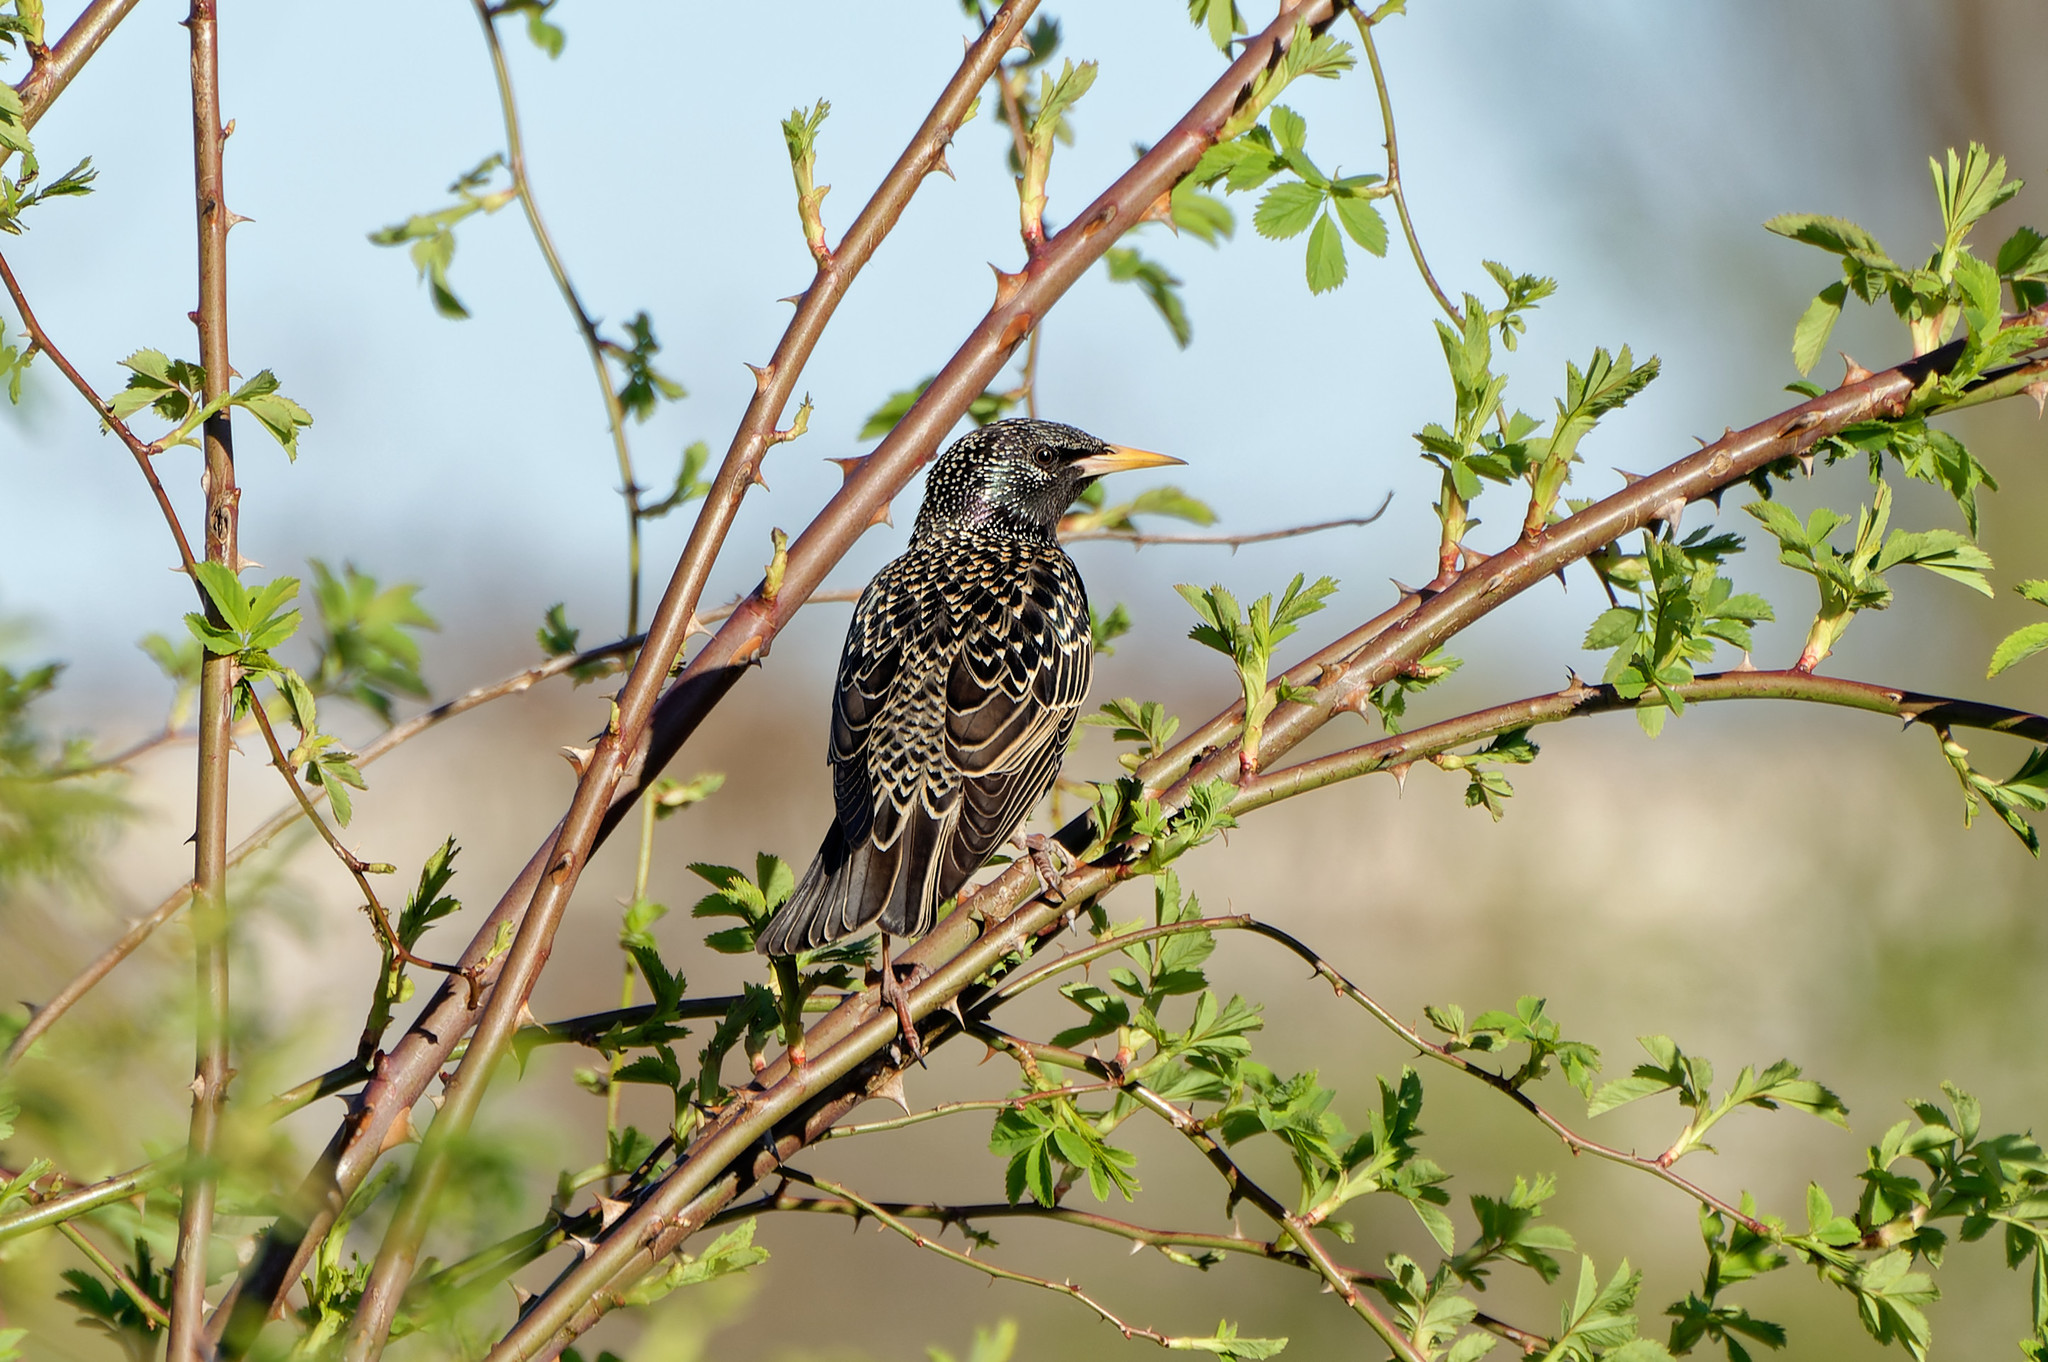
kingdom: Animalia
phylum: Chordata
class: Aves
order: Passeriformes
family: Sturnidae
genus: Sturnus
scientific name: Sturnus vulgaris
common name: Common starling
